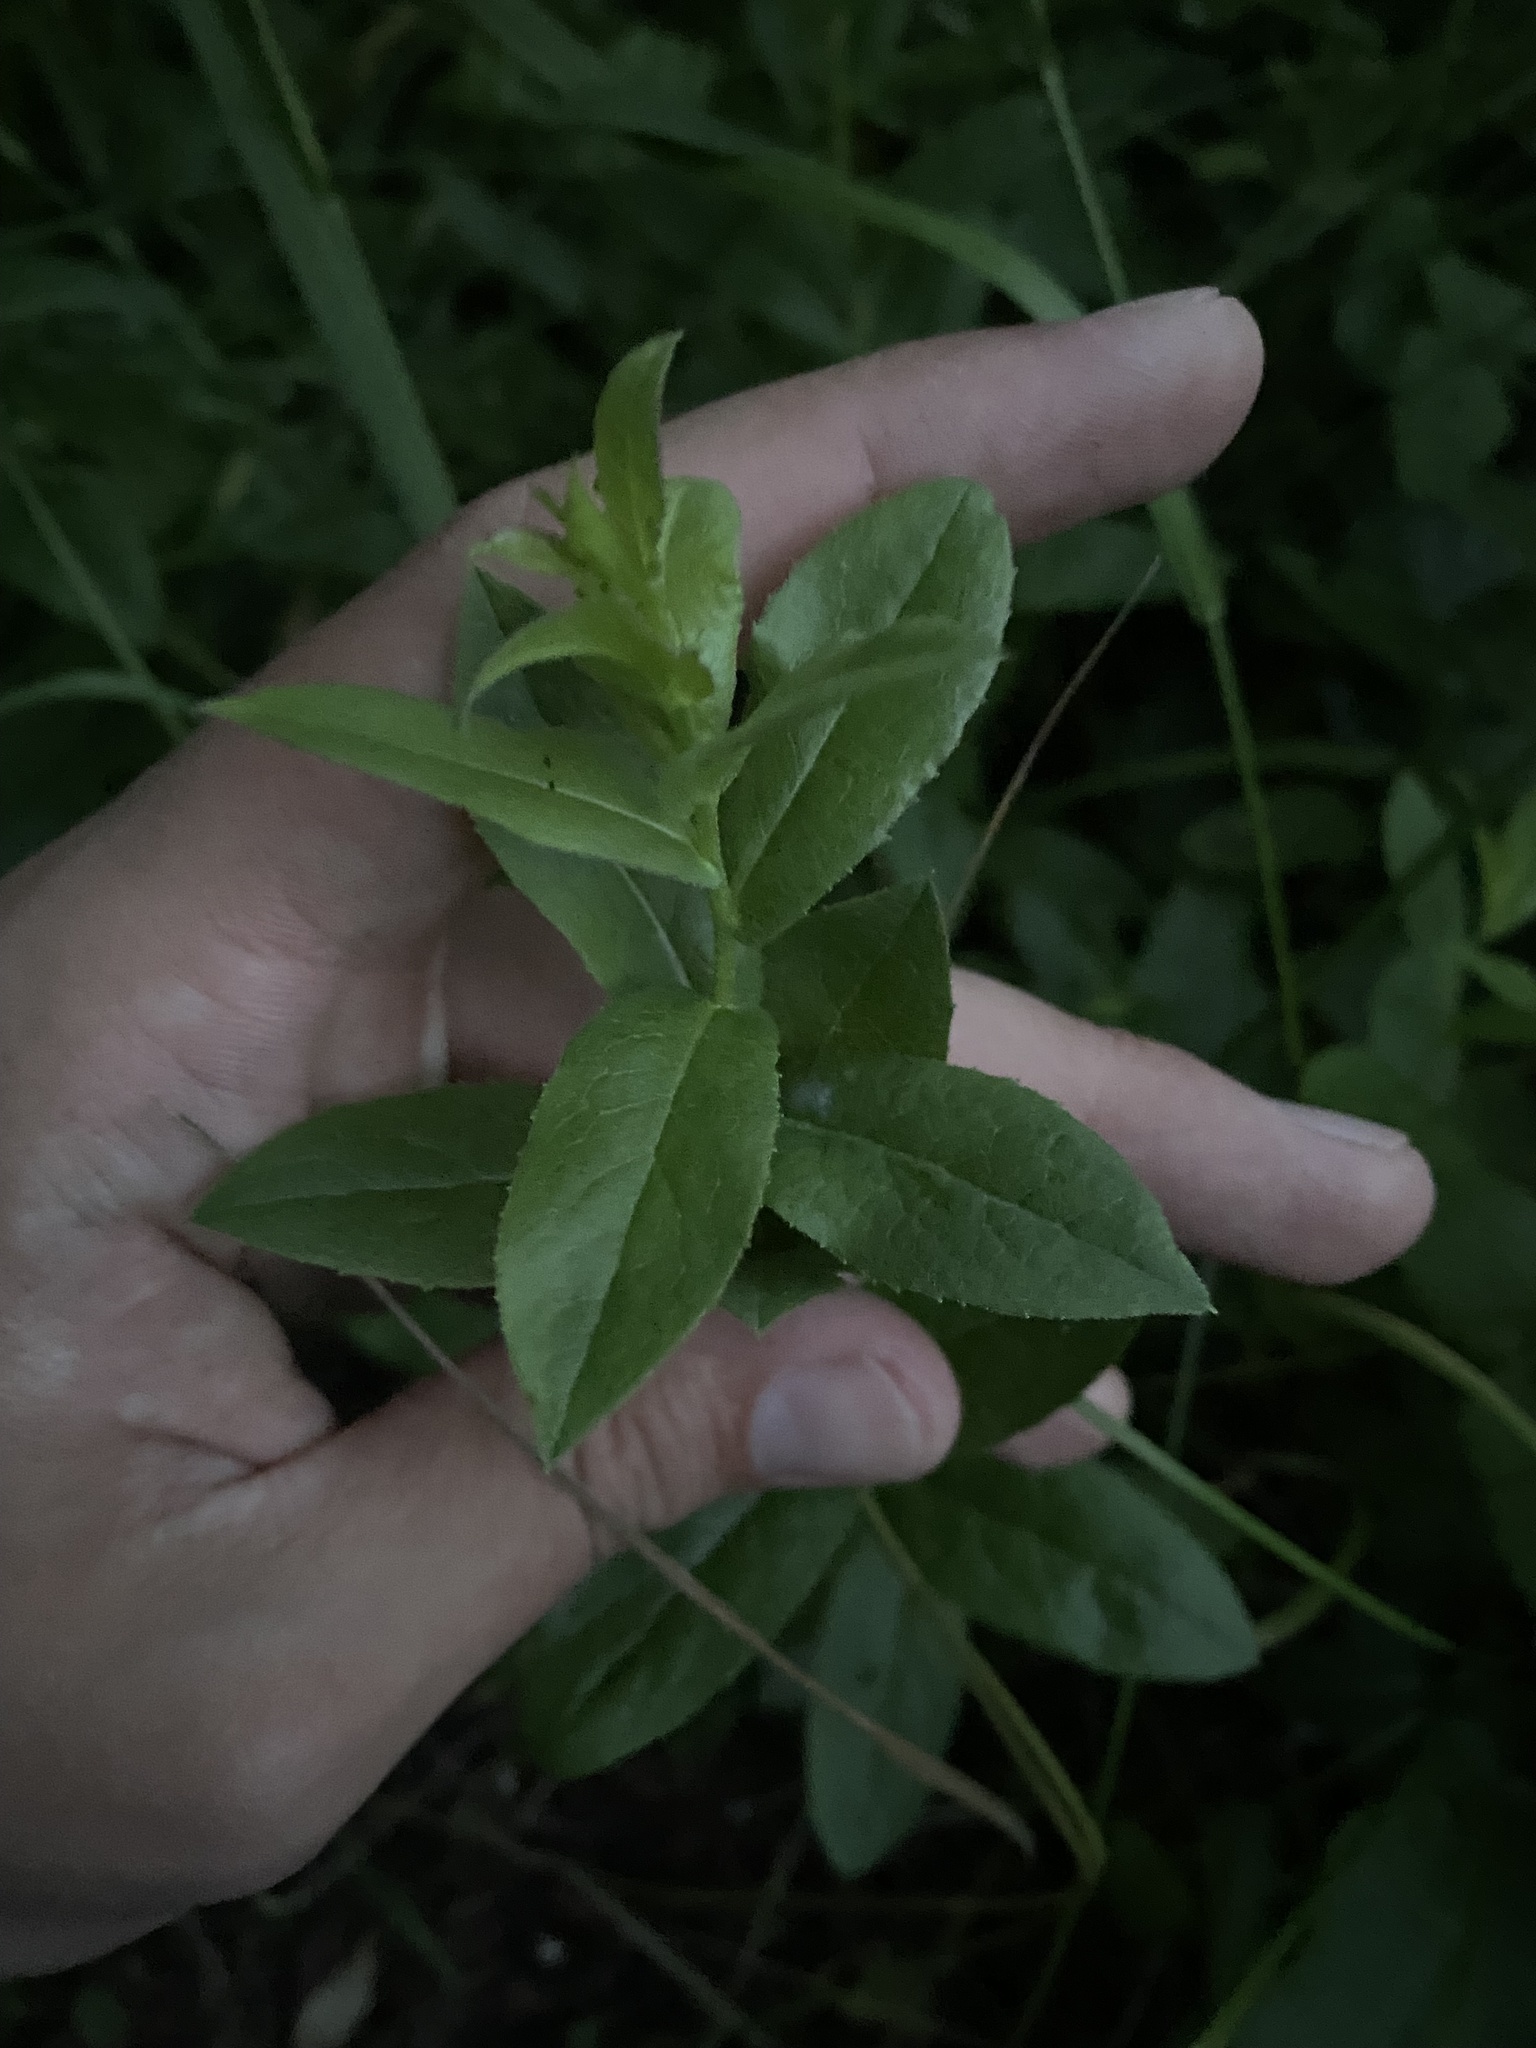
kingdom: Plantae
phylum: Tracheophyta
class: Magnoliopsida
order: Asterales
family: Asteraceae
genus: Pentanema
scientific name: Pentanema asperum
